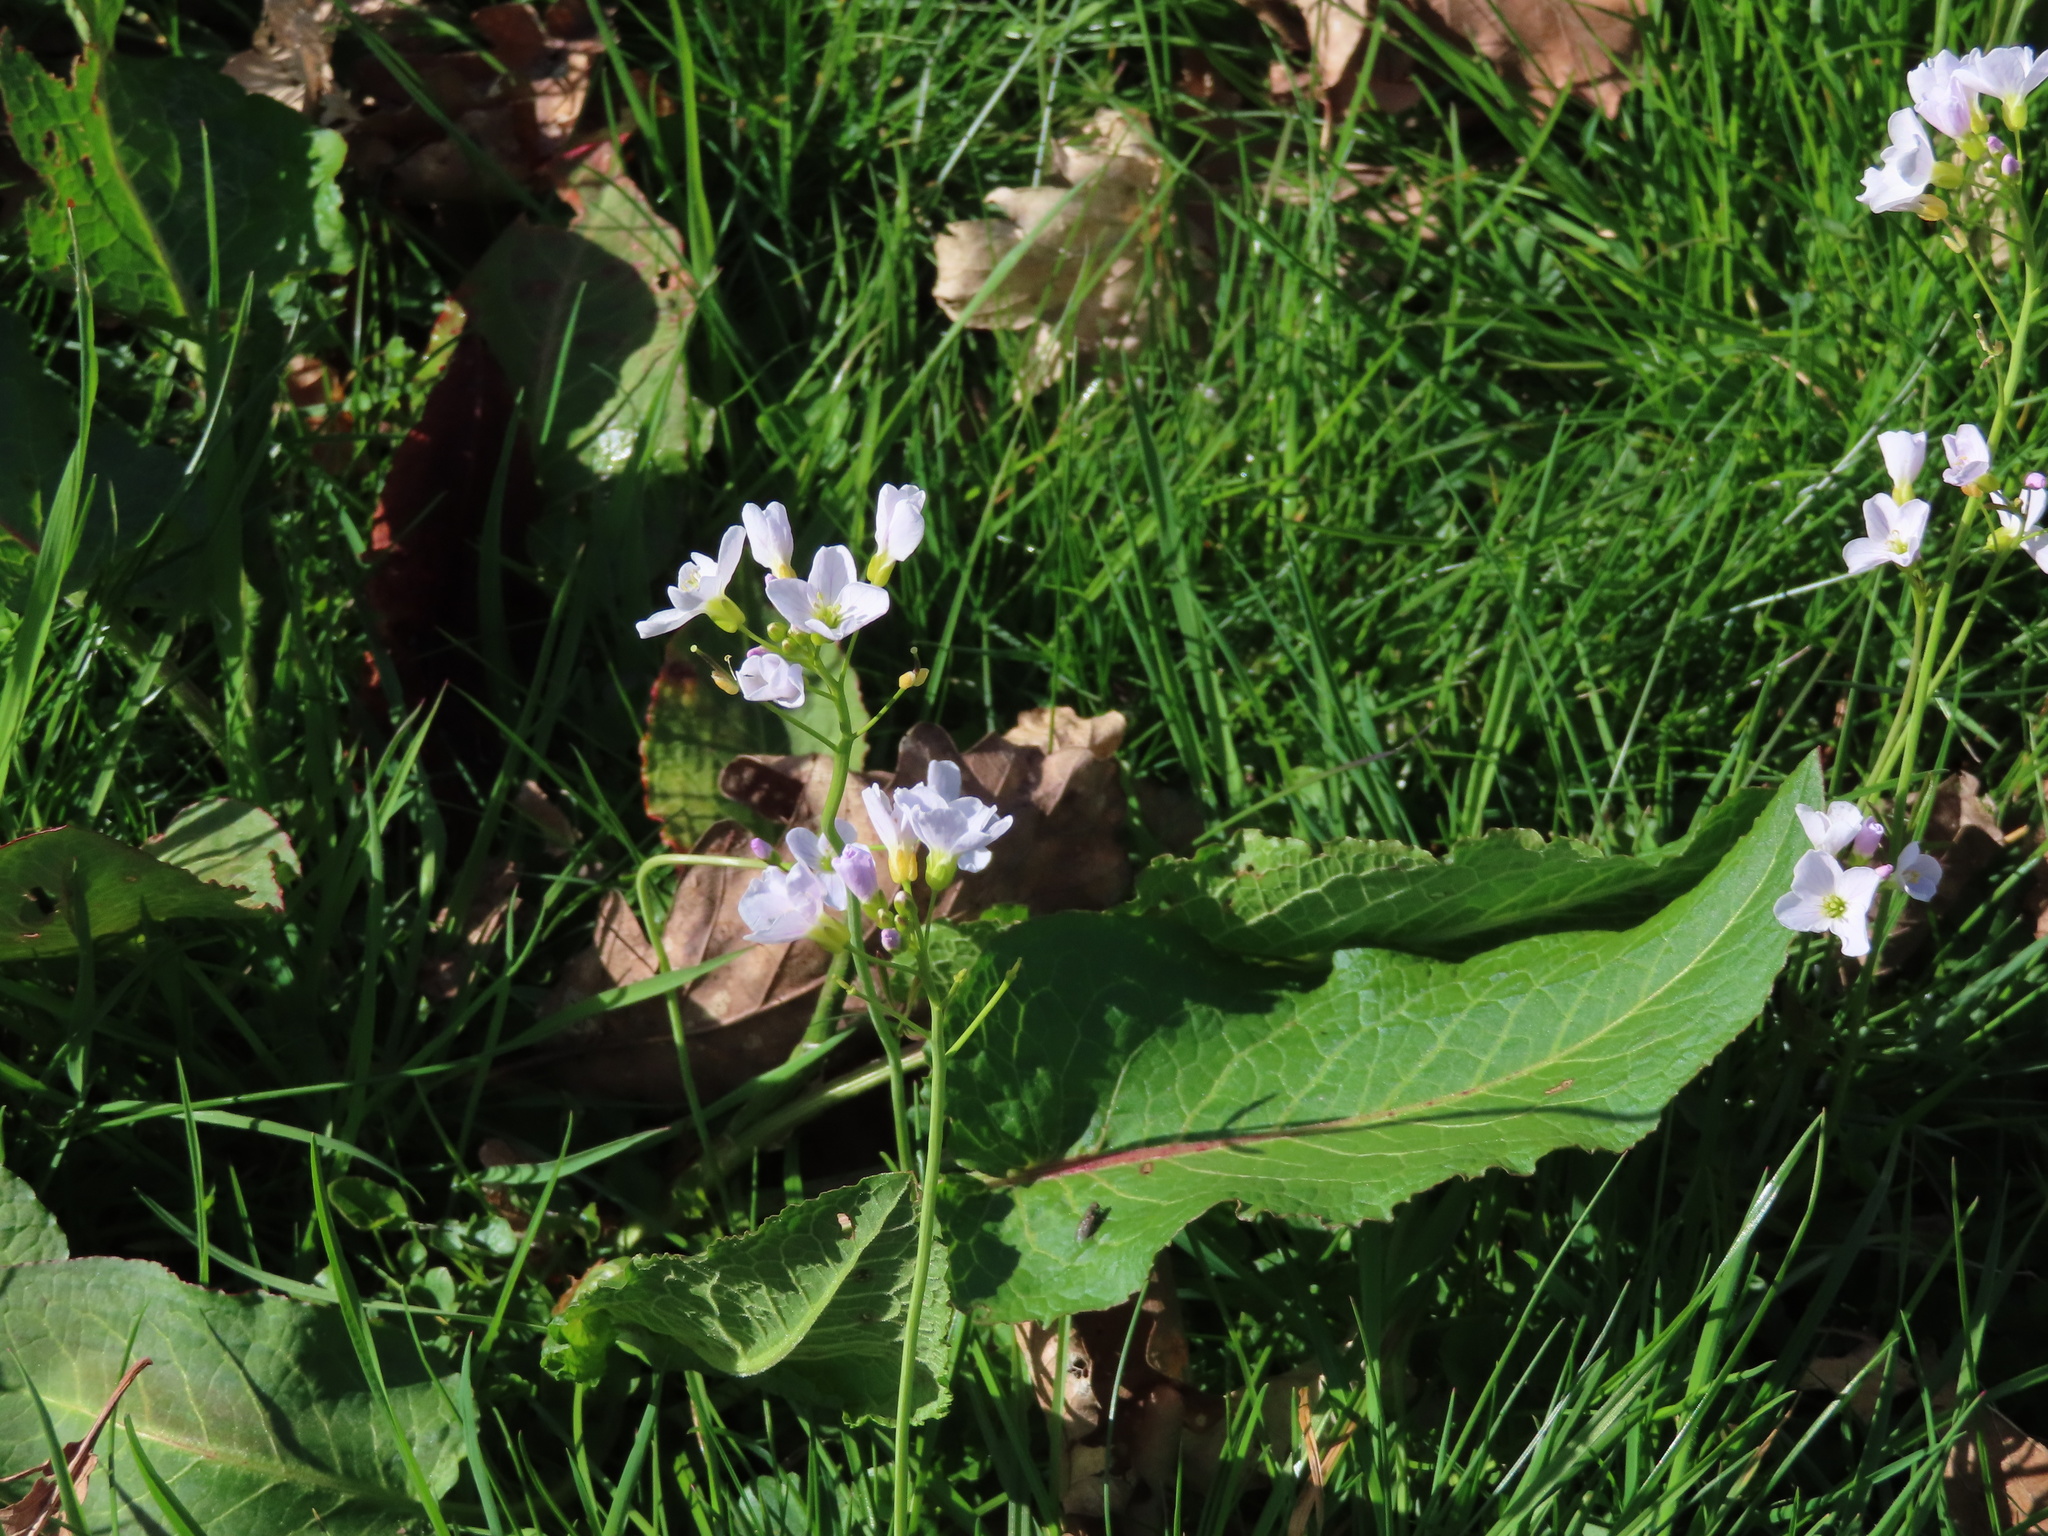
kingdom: Plantae
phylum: Tracheophyta
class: Magnoliopsida
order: Brassicales
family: Brassicaceae
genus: Cardamine
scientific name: Cardamine pratensis
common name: Cuckoo flower
